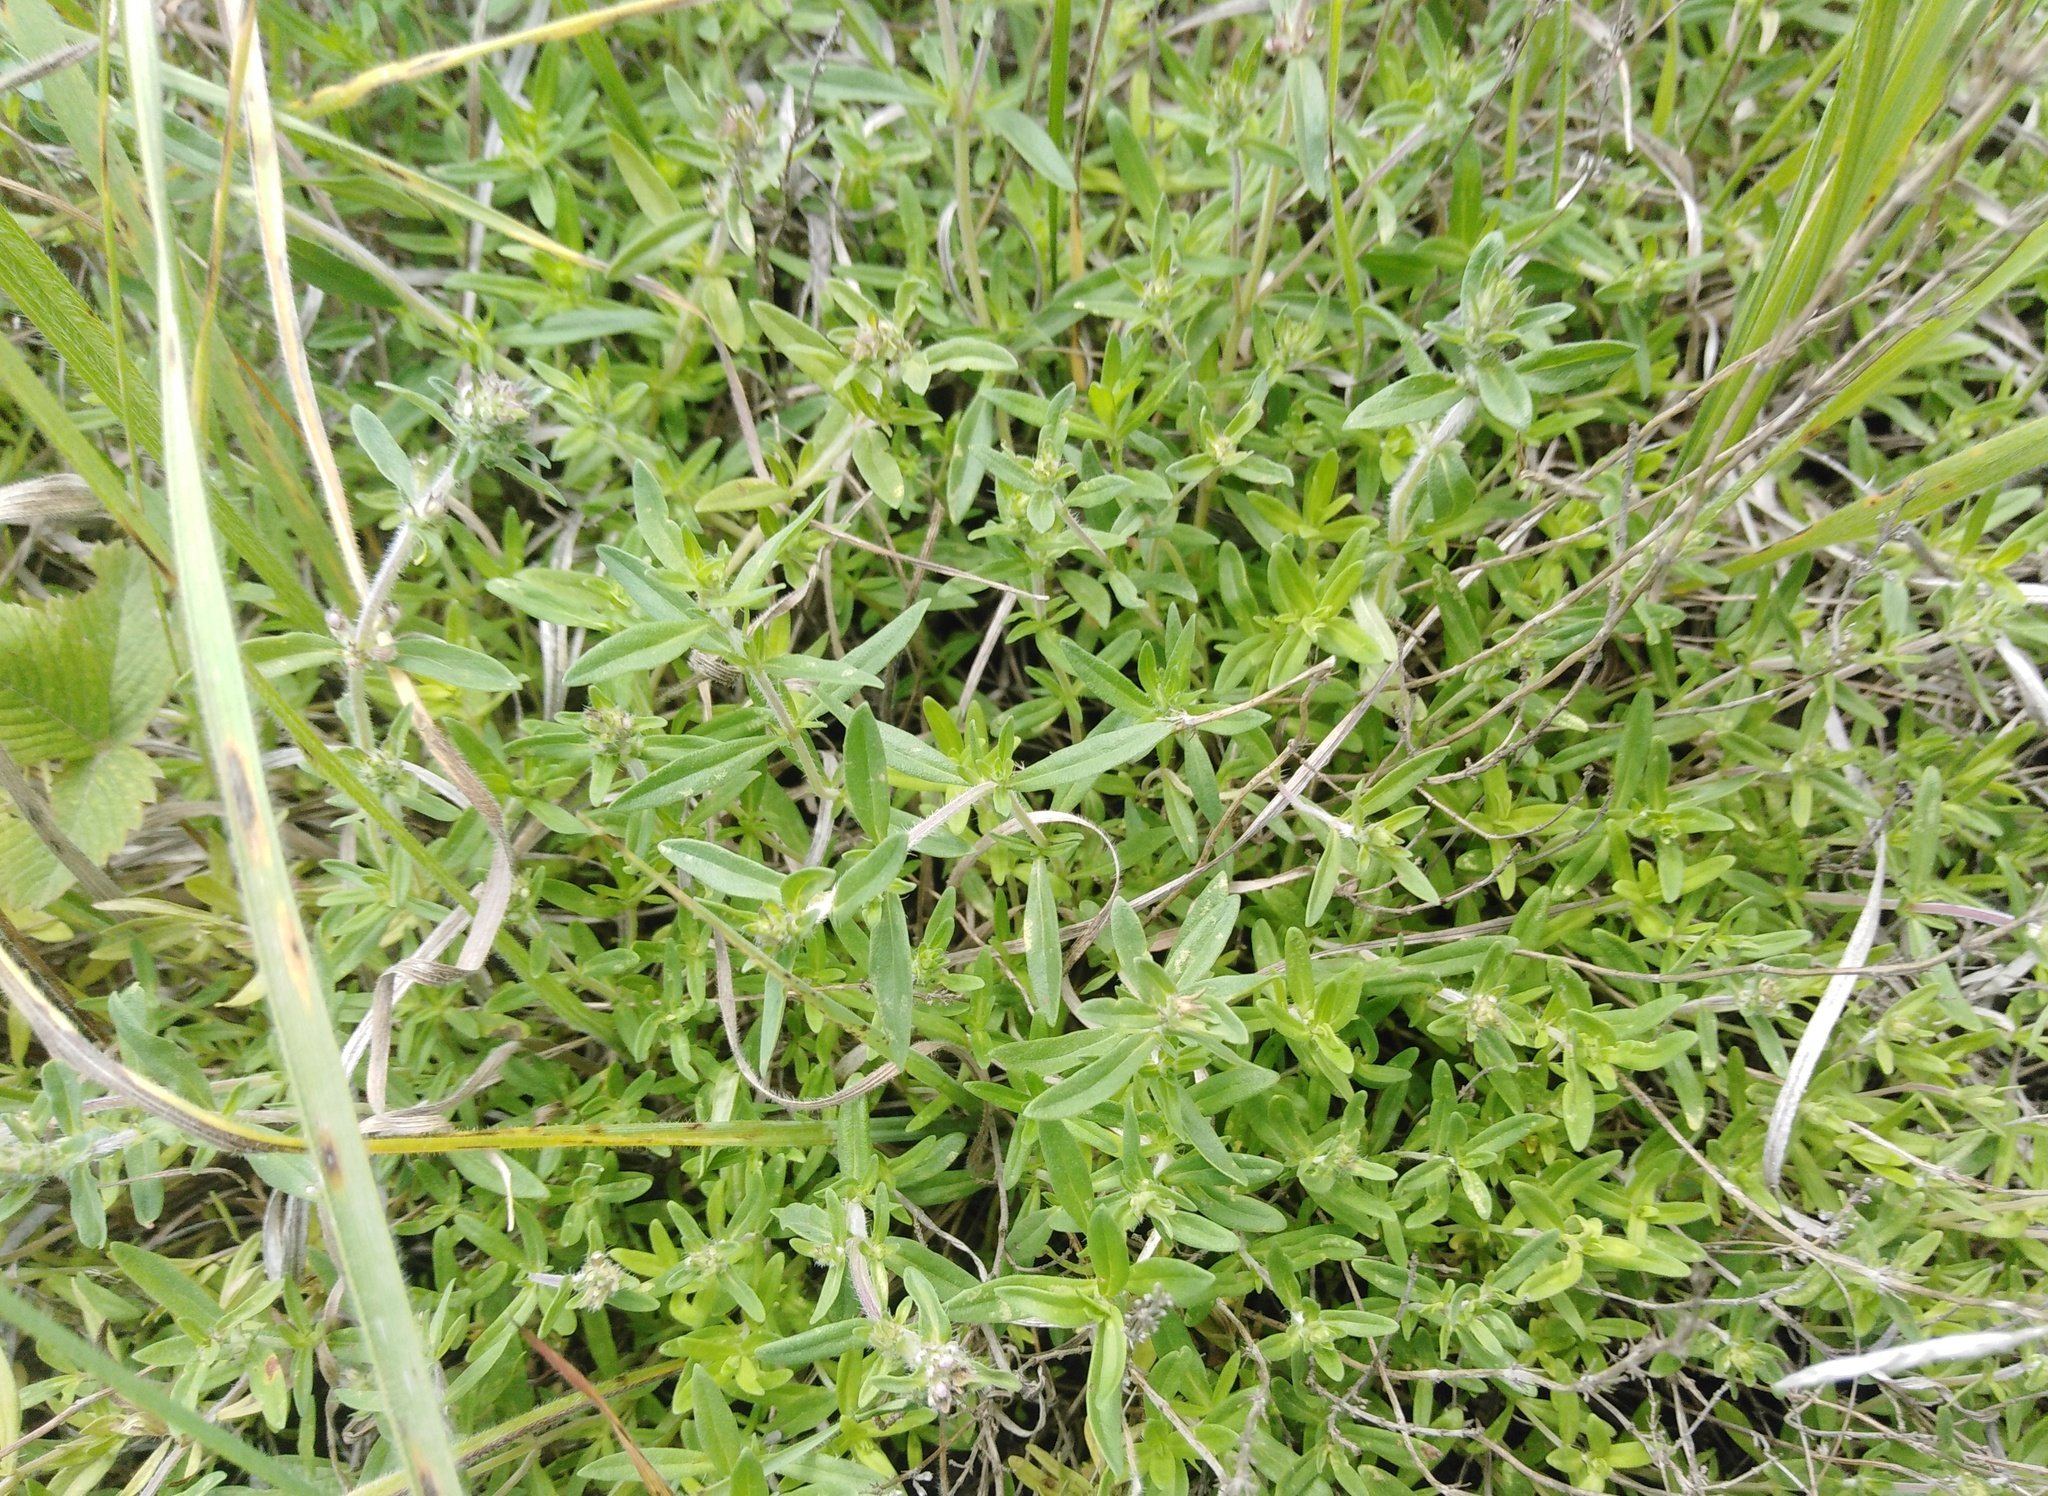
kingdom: Plantae
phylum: Tracheophyta
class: Magnoliopsida
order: Lamiales
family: Lamiaceae
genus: Thymus
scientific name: Thymus pannonicus
